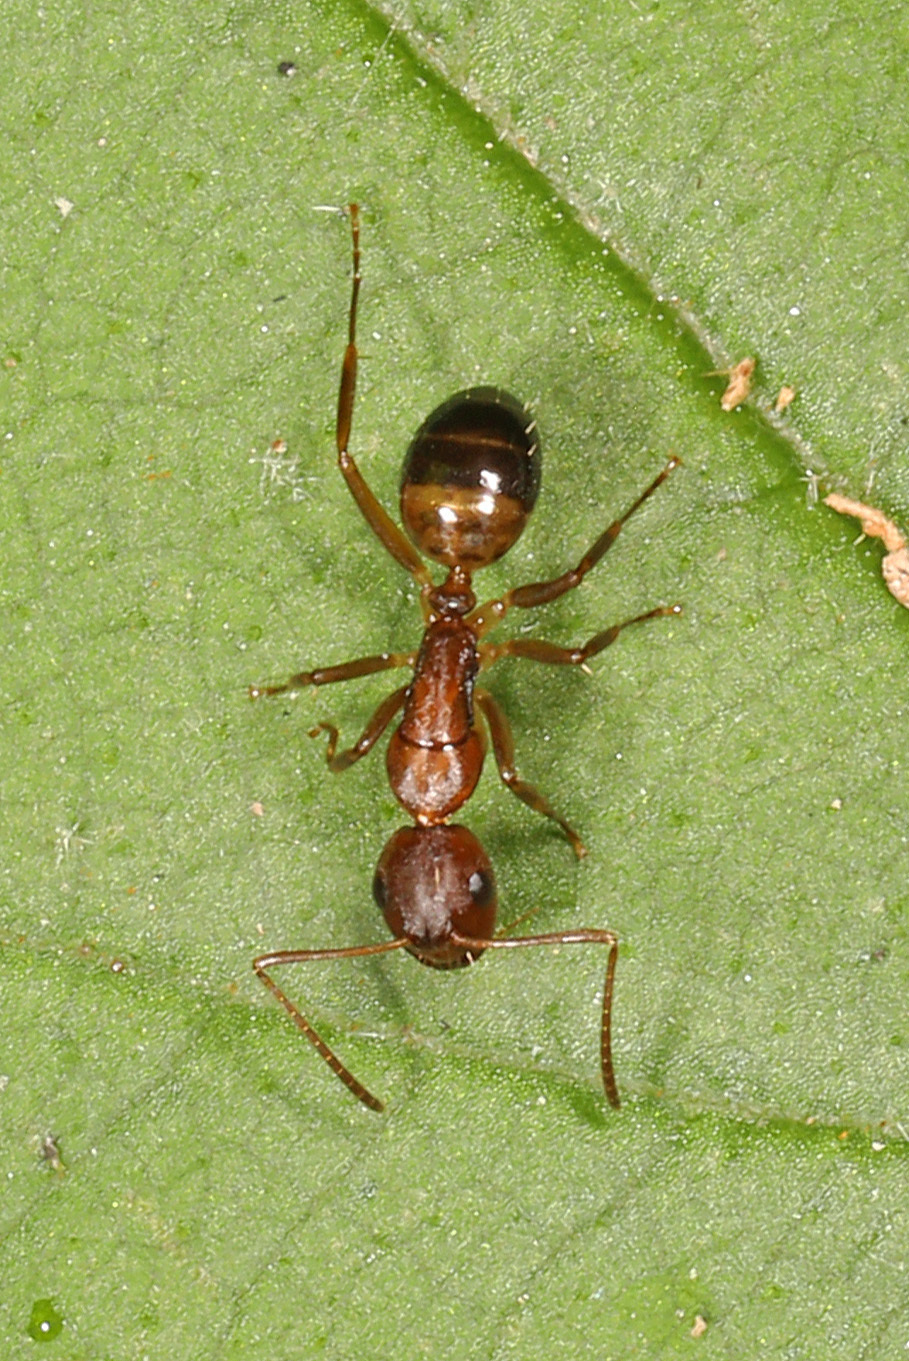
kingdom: Animalia
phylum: Arthropoda
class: Insecta
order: Hymenoptera
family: Formicidae
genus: Camponotus
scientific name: Camponotus subbarbatus
